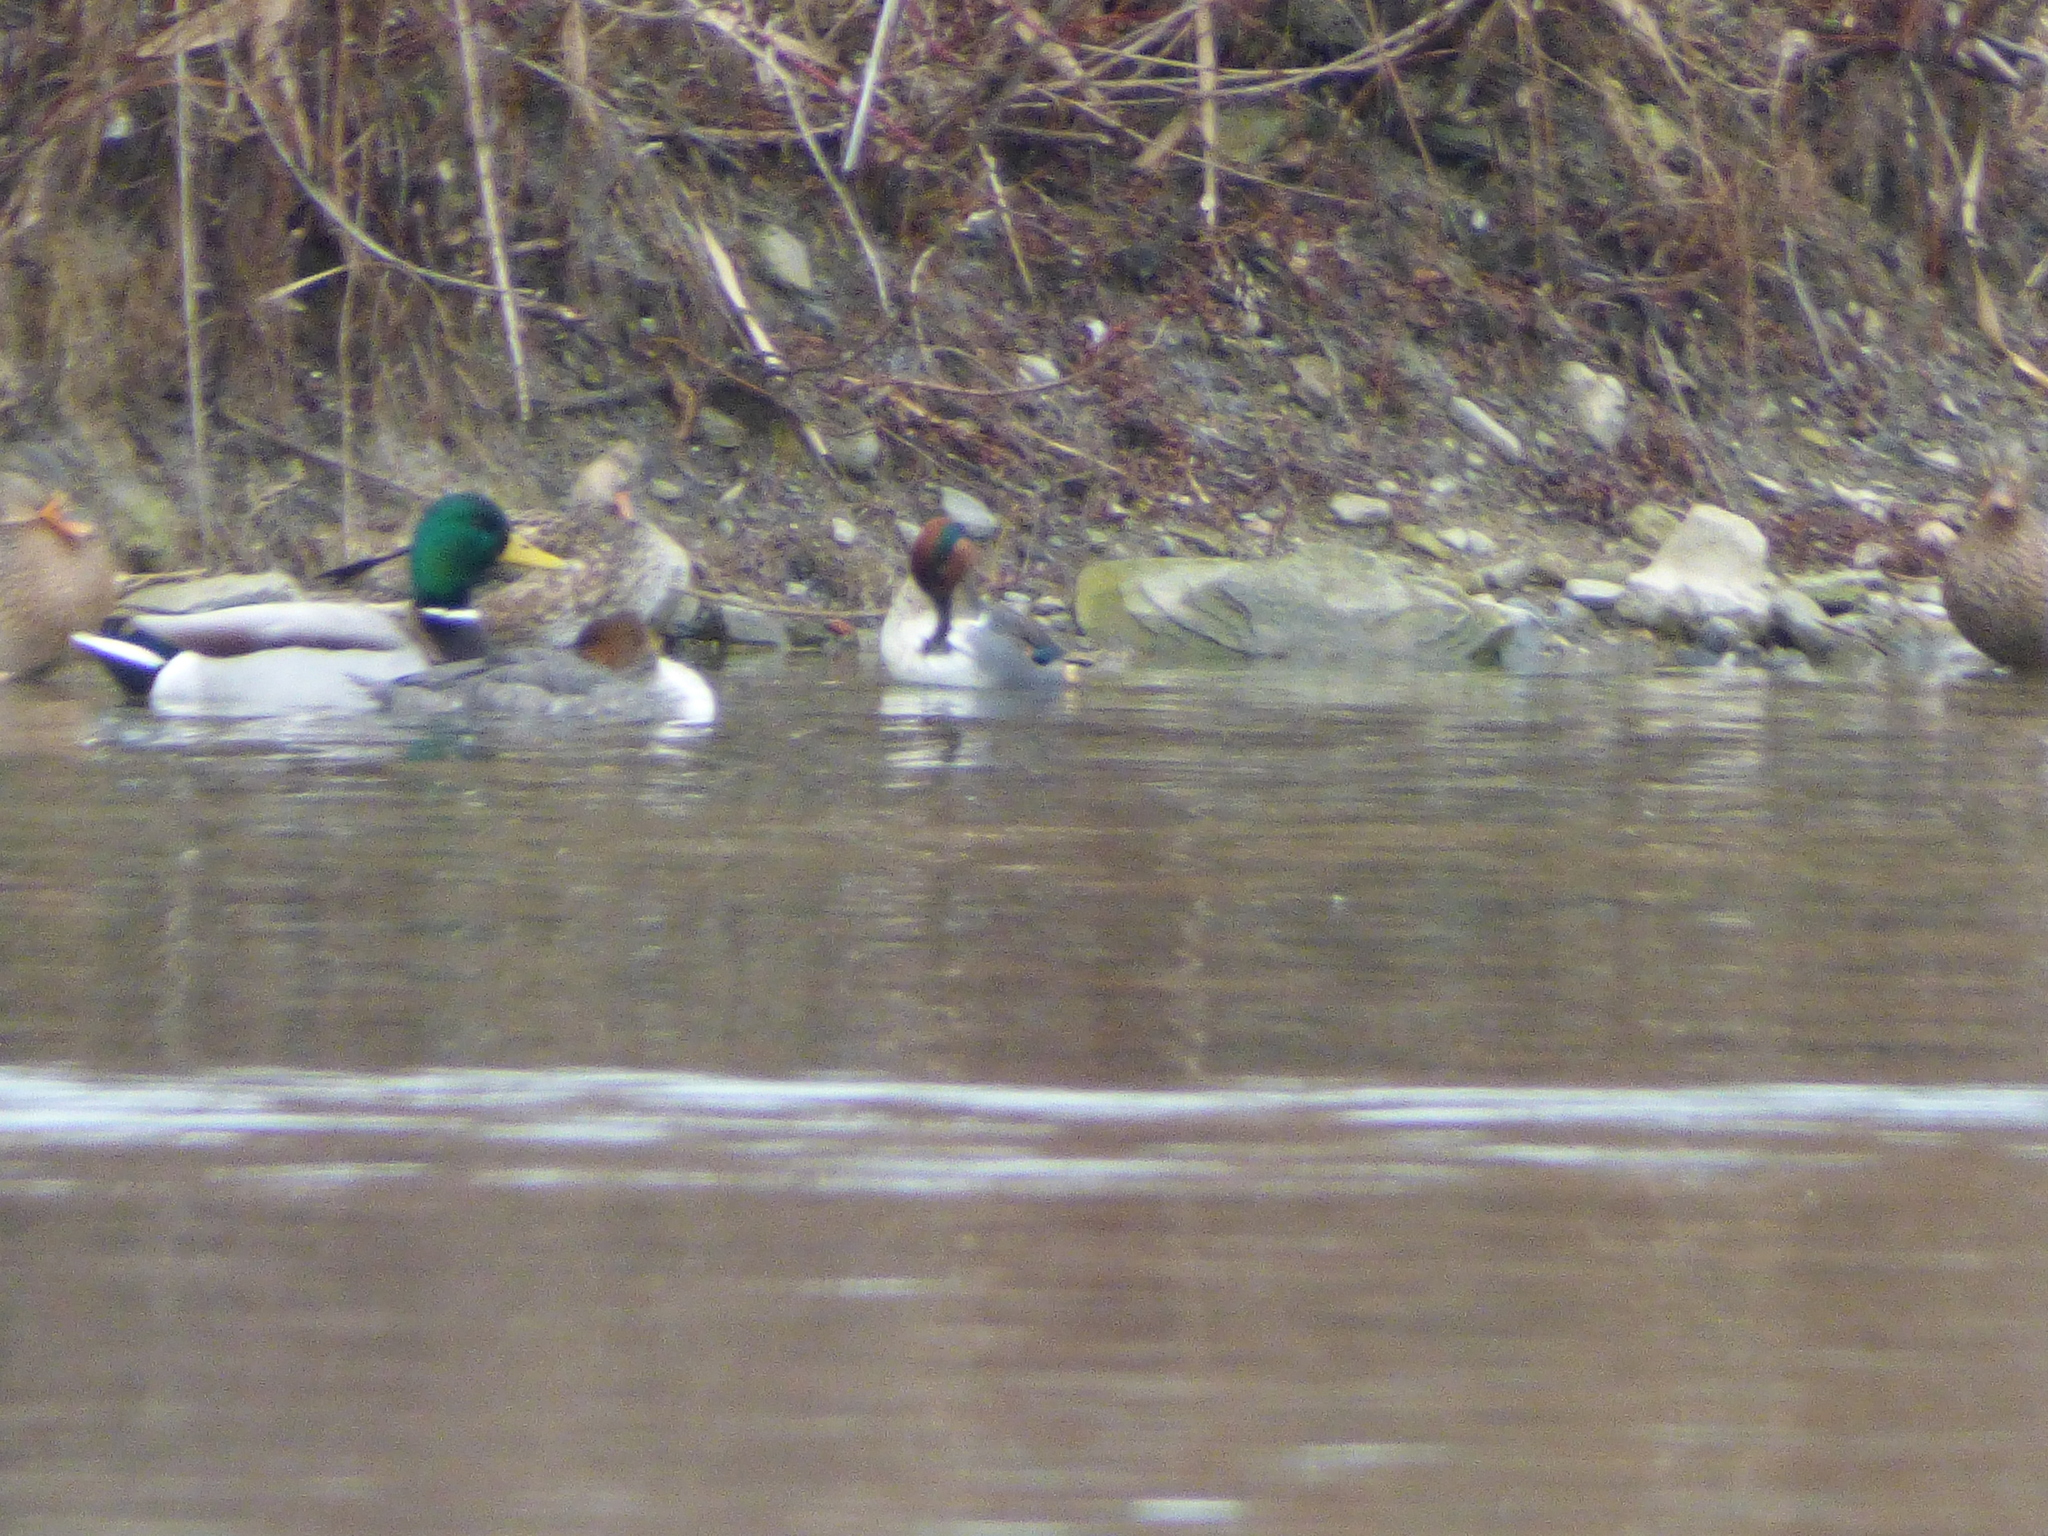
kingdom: Animalia
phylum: Chordata
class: Aves
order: Anseriformes
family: Anatidae
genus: Anas
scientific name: Anas crecca
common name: Eurasian teal
